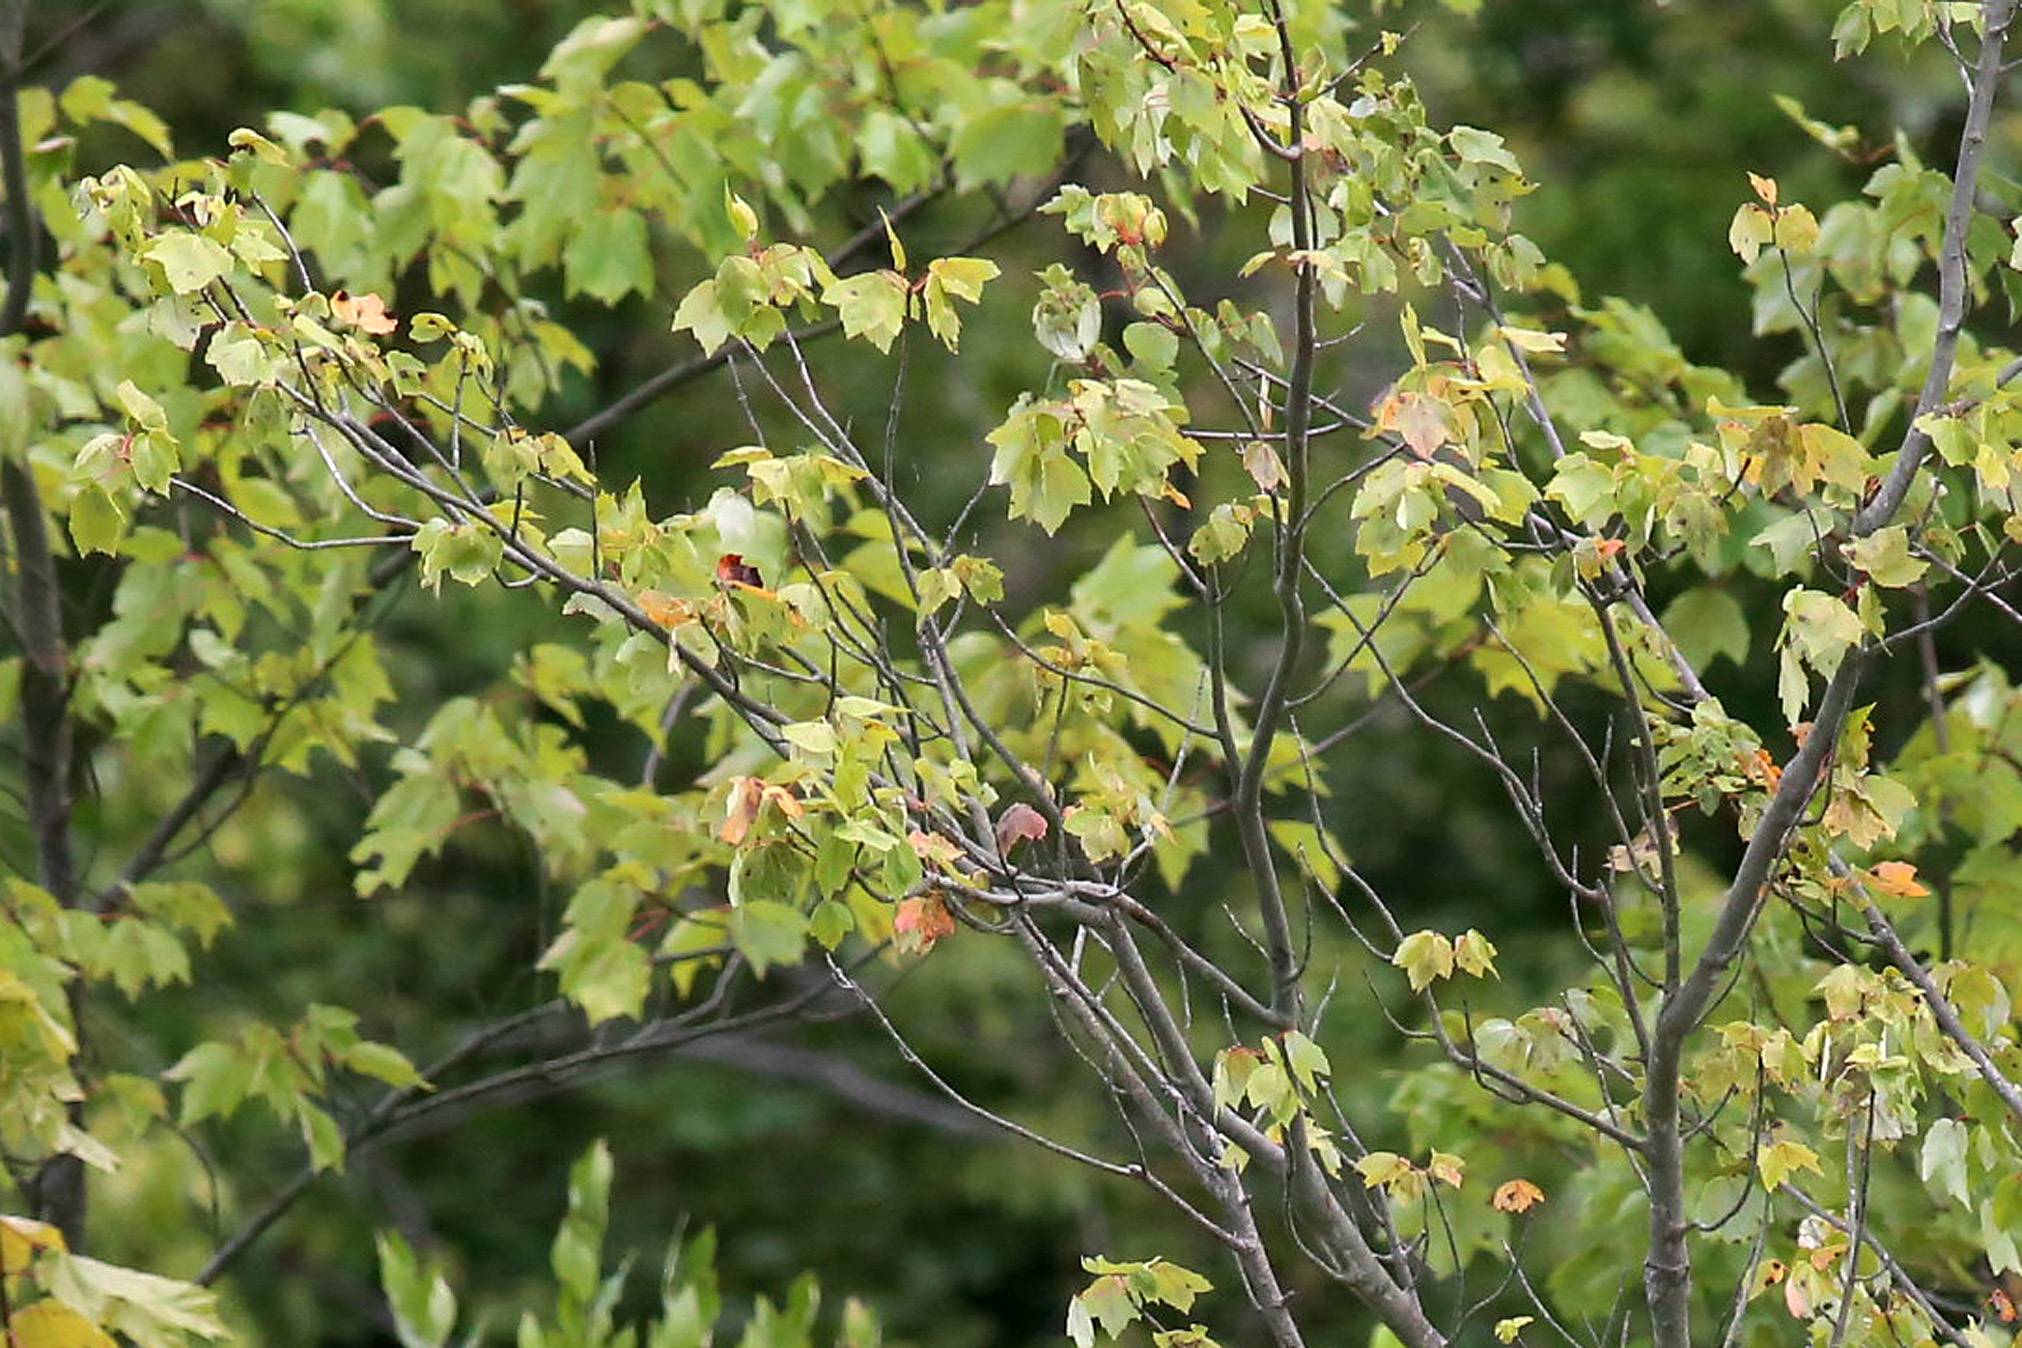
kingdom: Plantae
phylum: Tracheophyta
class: Magnoliopsida
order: Sapindales
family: Sapindaceae
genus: Acer
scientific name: Acer rubrum
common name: Red maple
